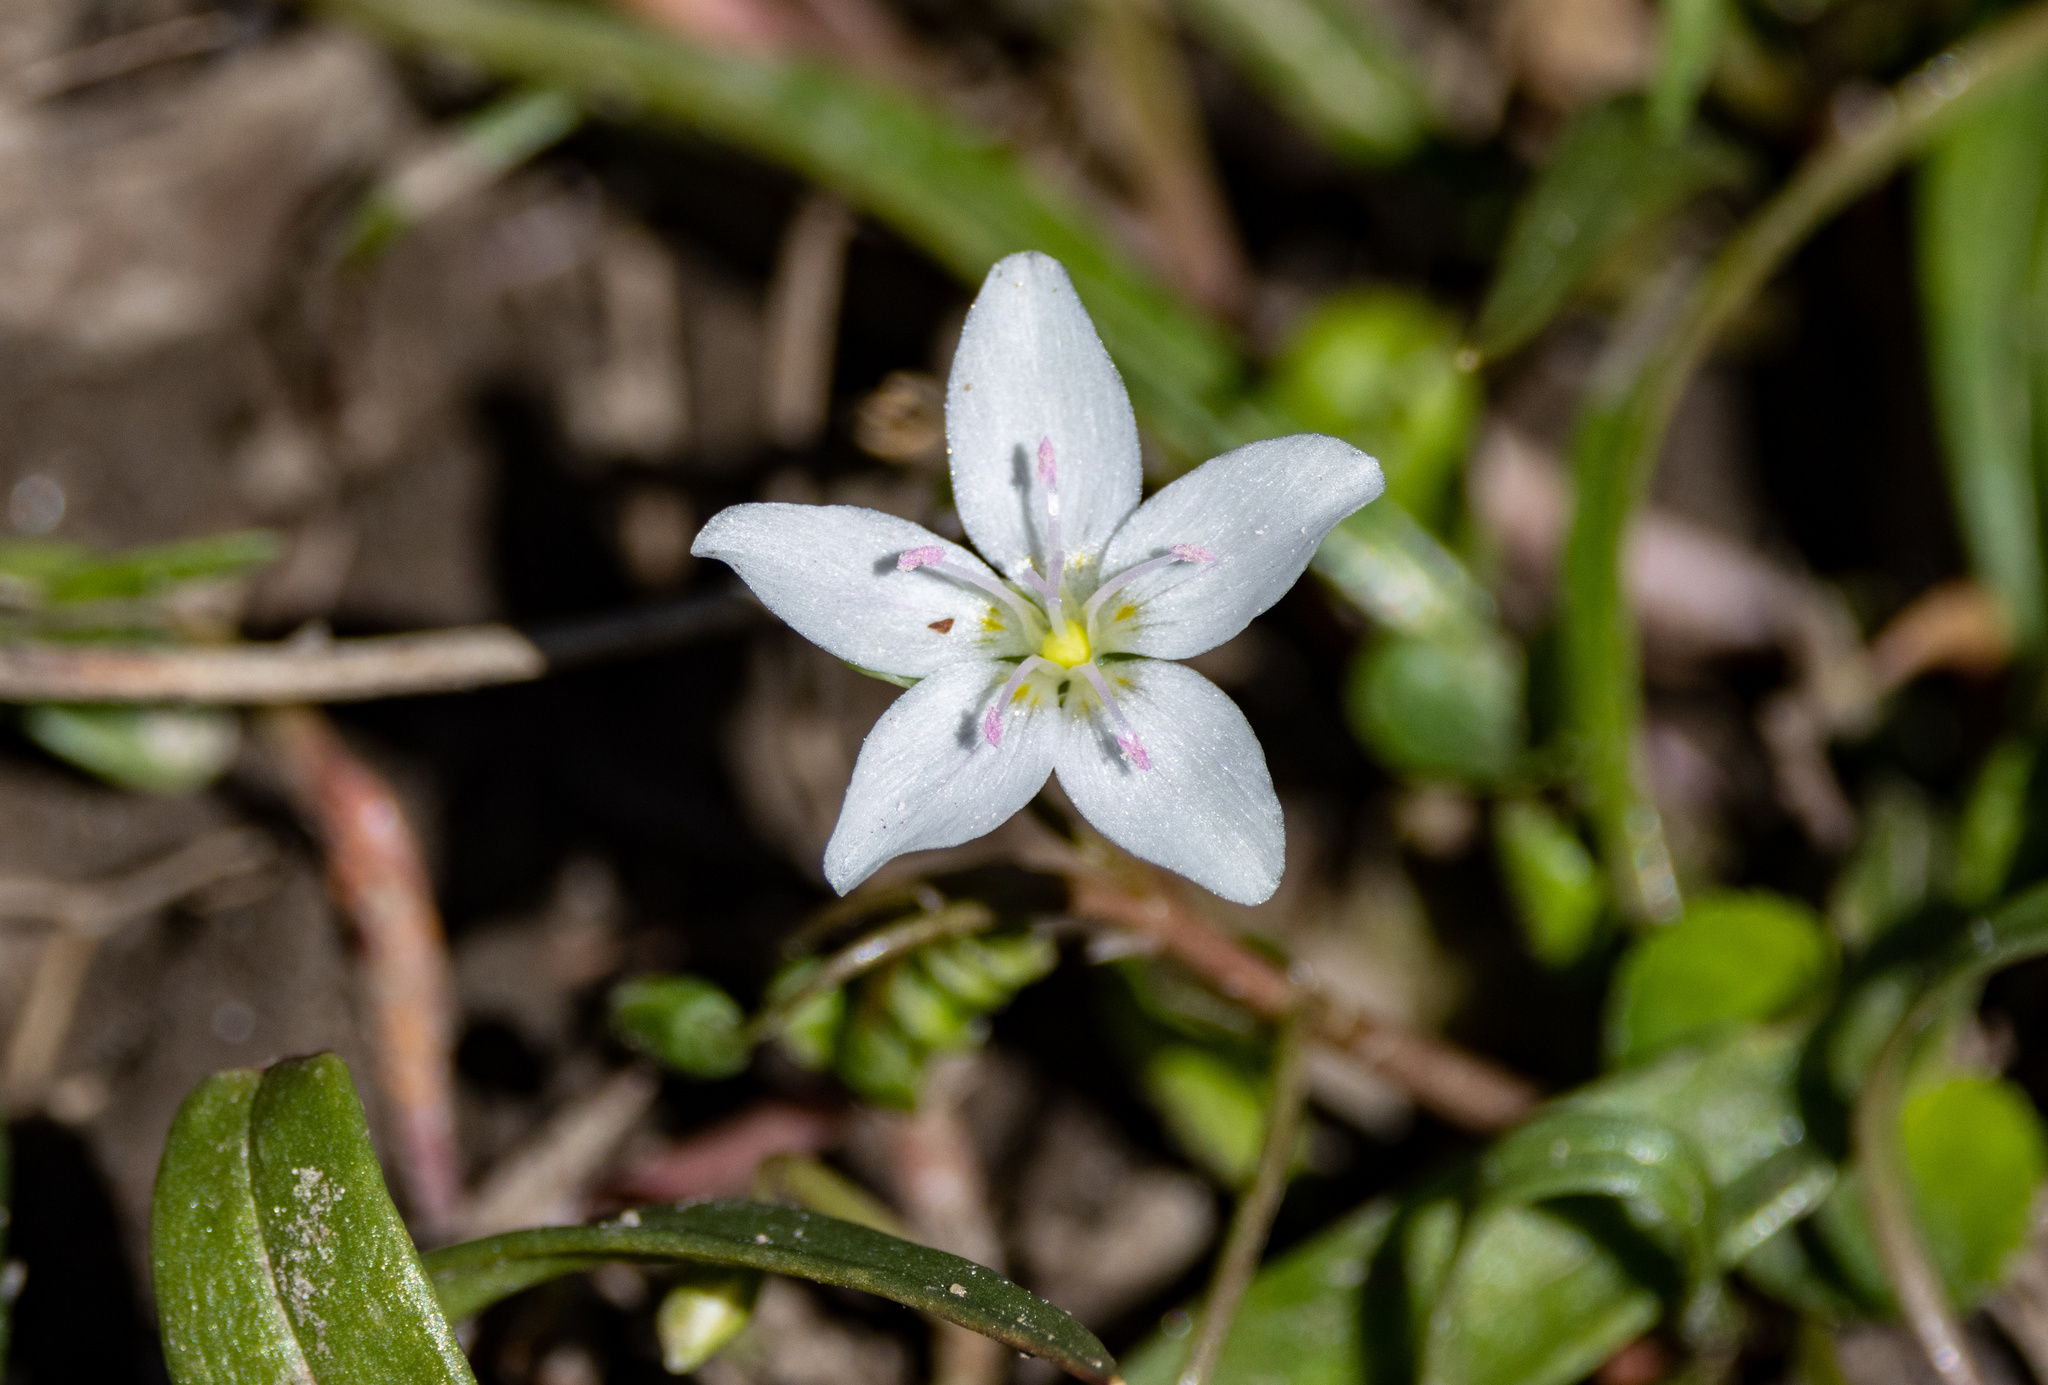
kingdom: Plantae
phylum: Tracheophyta
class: Magnoliopsida
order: Caryophyllales
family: Montiaceae
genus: Claytonia
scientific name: Claytonia virginica
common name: Virginia springbeauty
